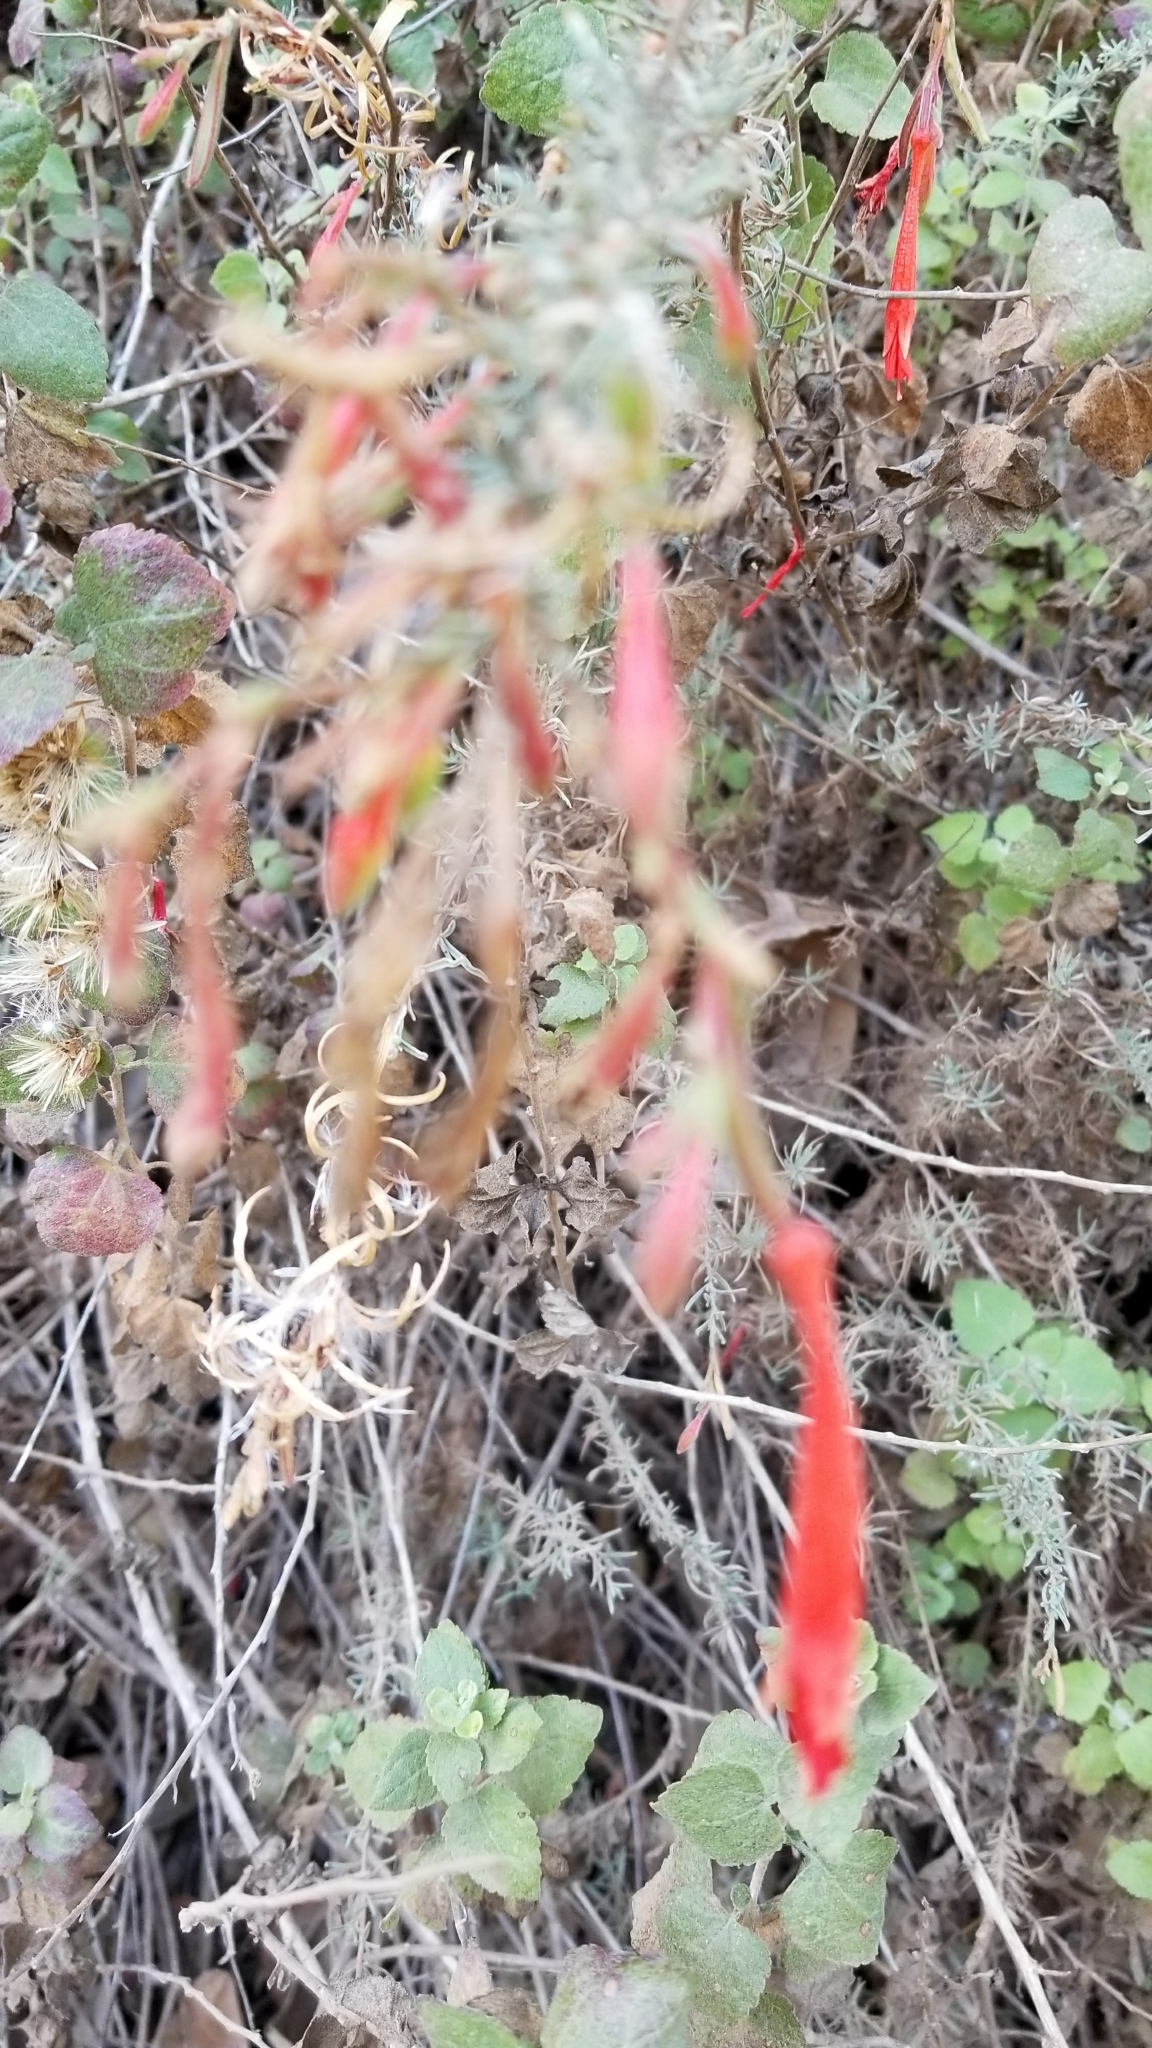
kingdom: Plantae
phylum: Tracheophyta
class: Magnoliopsida
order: Myrtales
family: Onagraceae
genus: Epilobium
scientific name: Epilobium canum
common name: California-fuchsia
